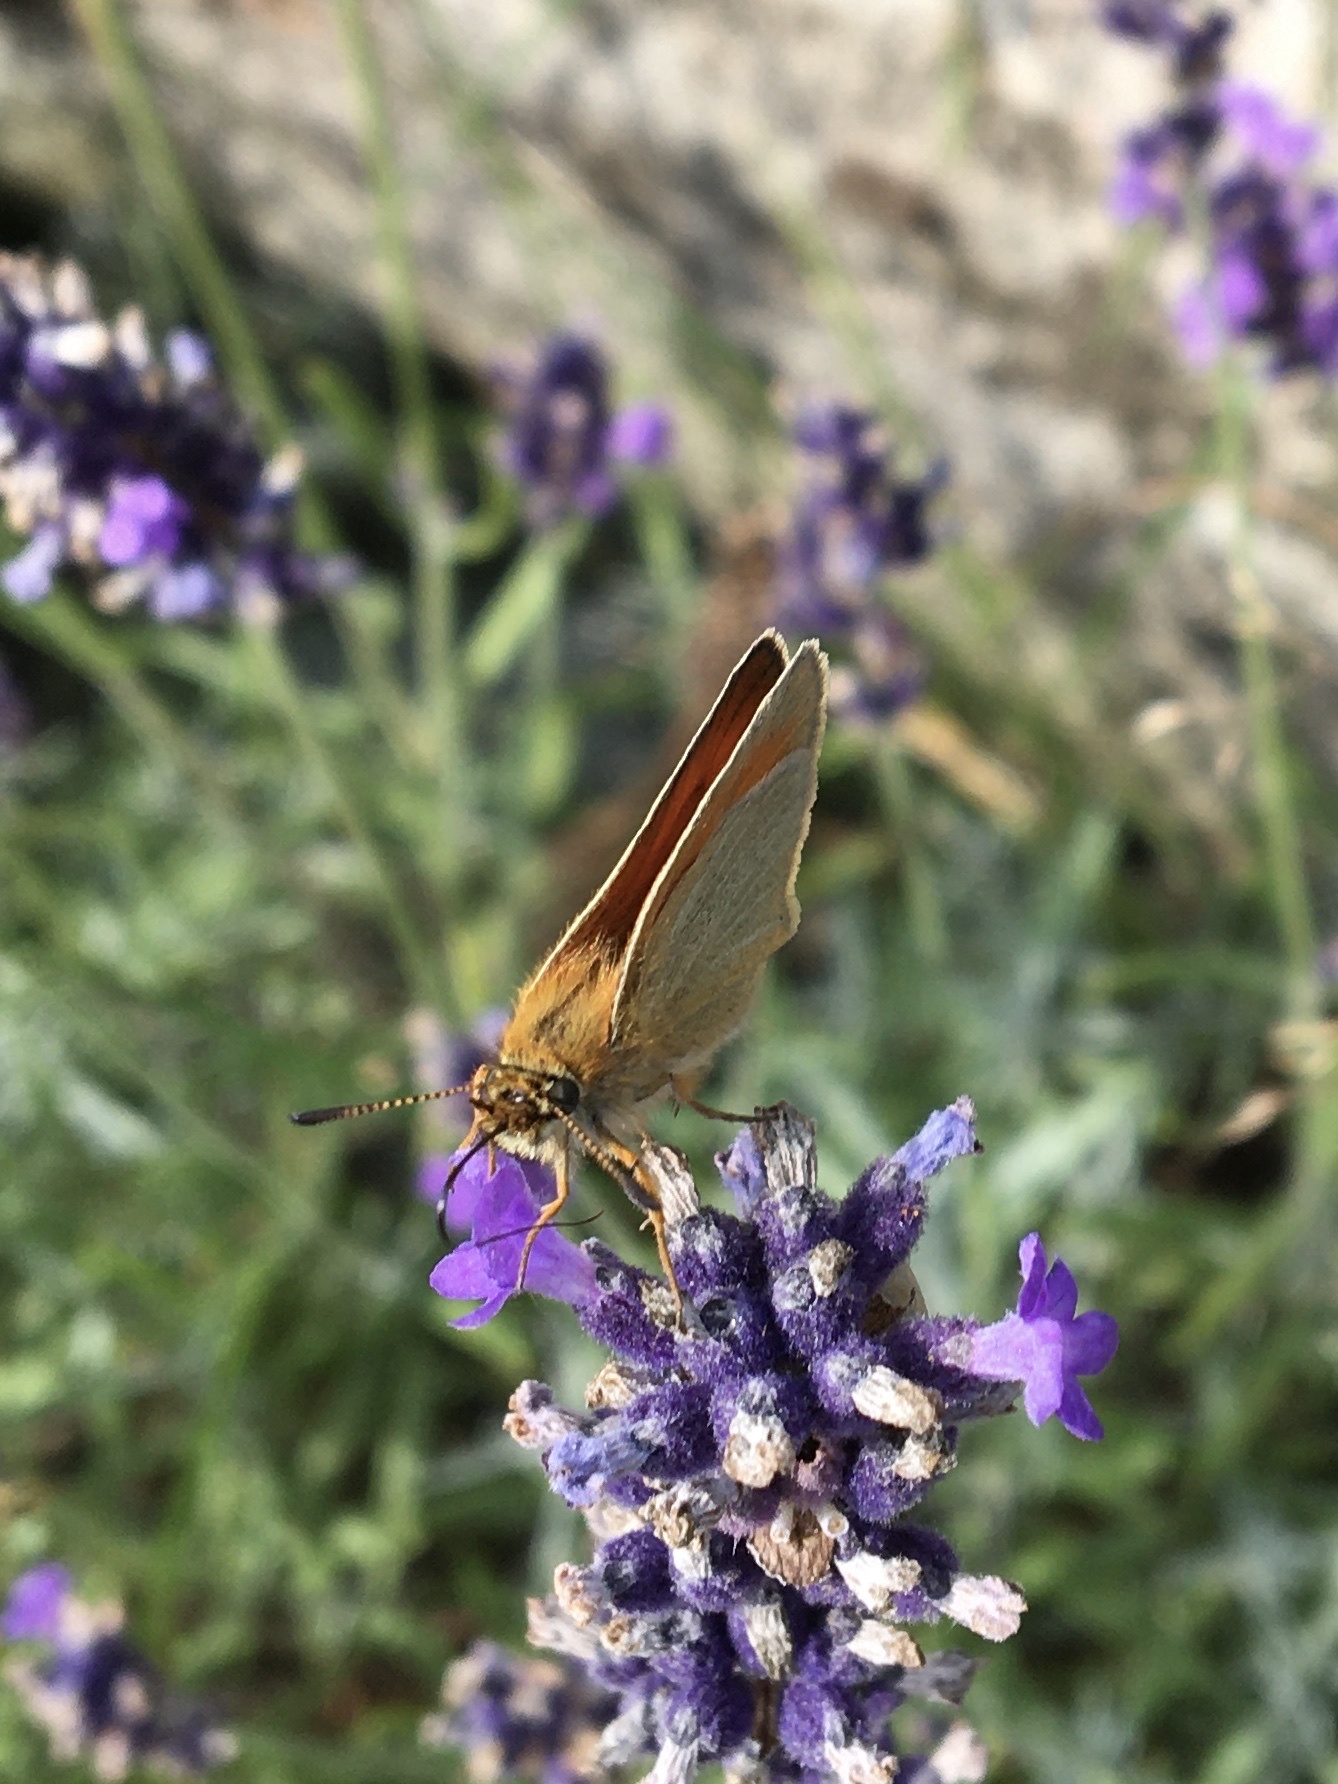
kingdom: Animalia
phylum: Arthropoda
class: Insecta
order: Lepidoptera
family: Hesperiidae
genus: Thymelicus
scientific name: Thymelicus lineola
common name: Essex skipper
